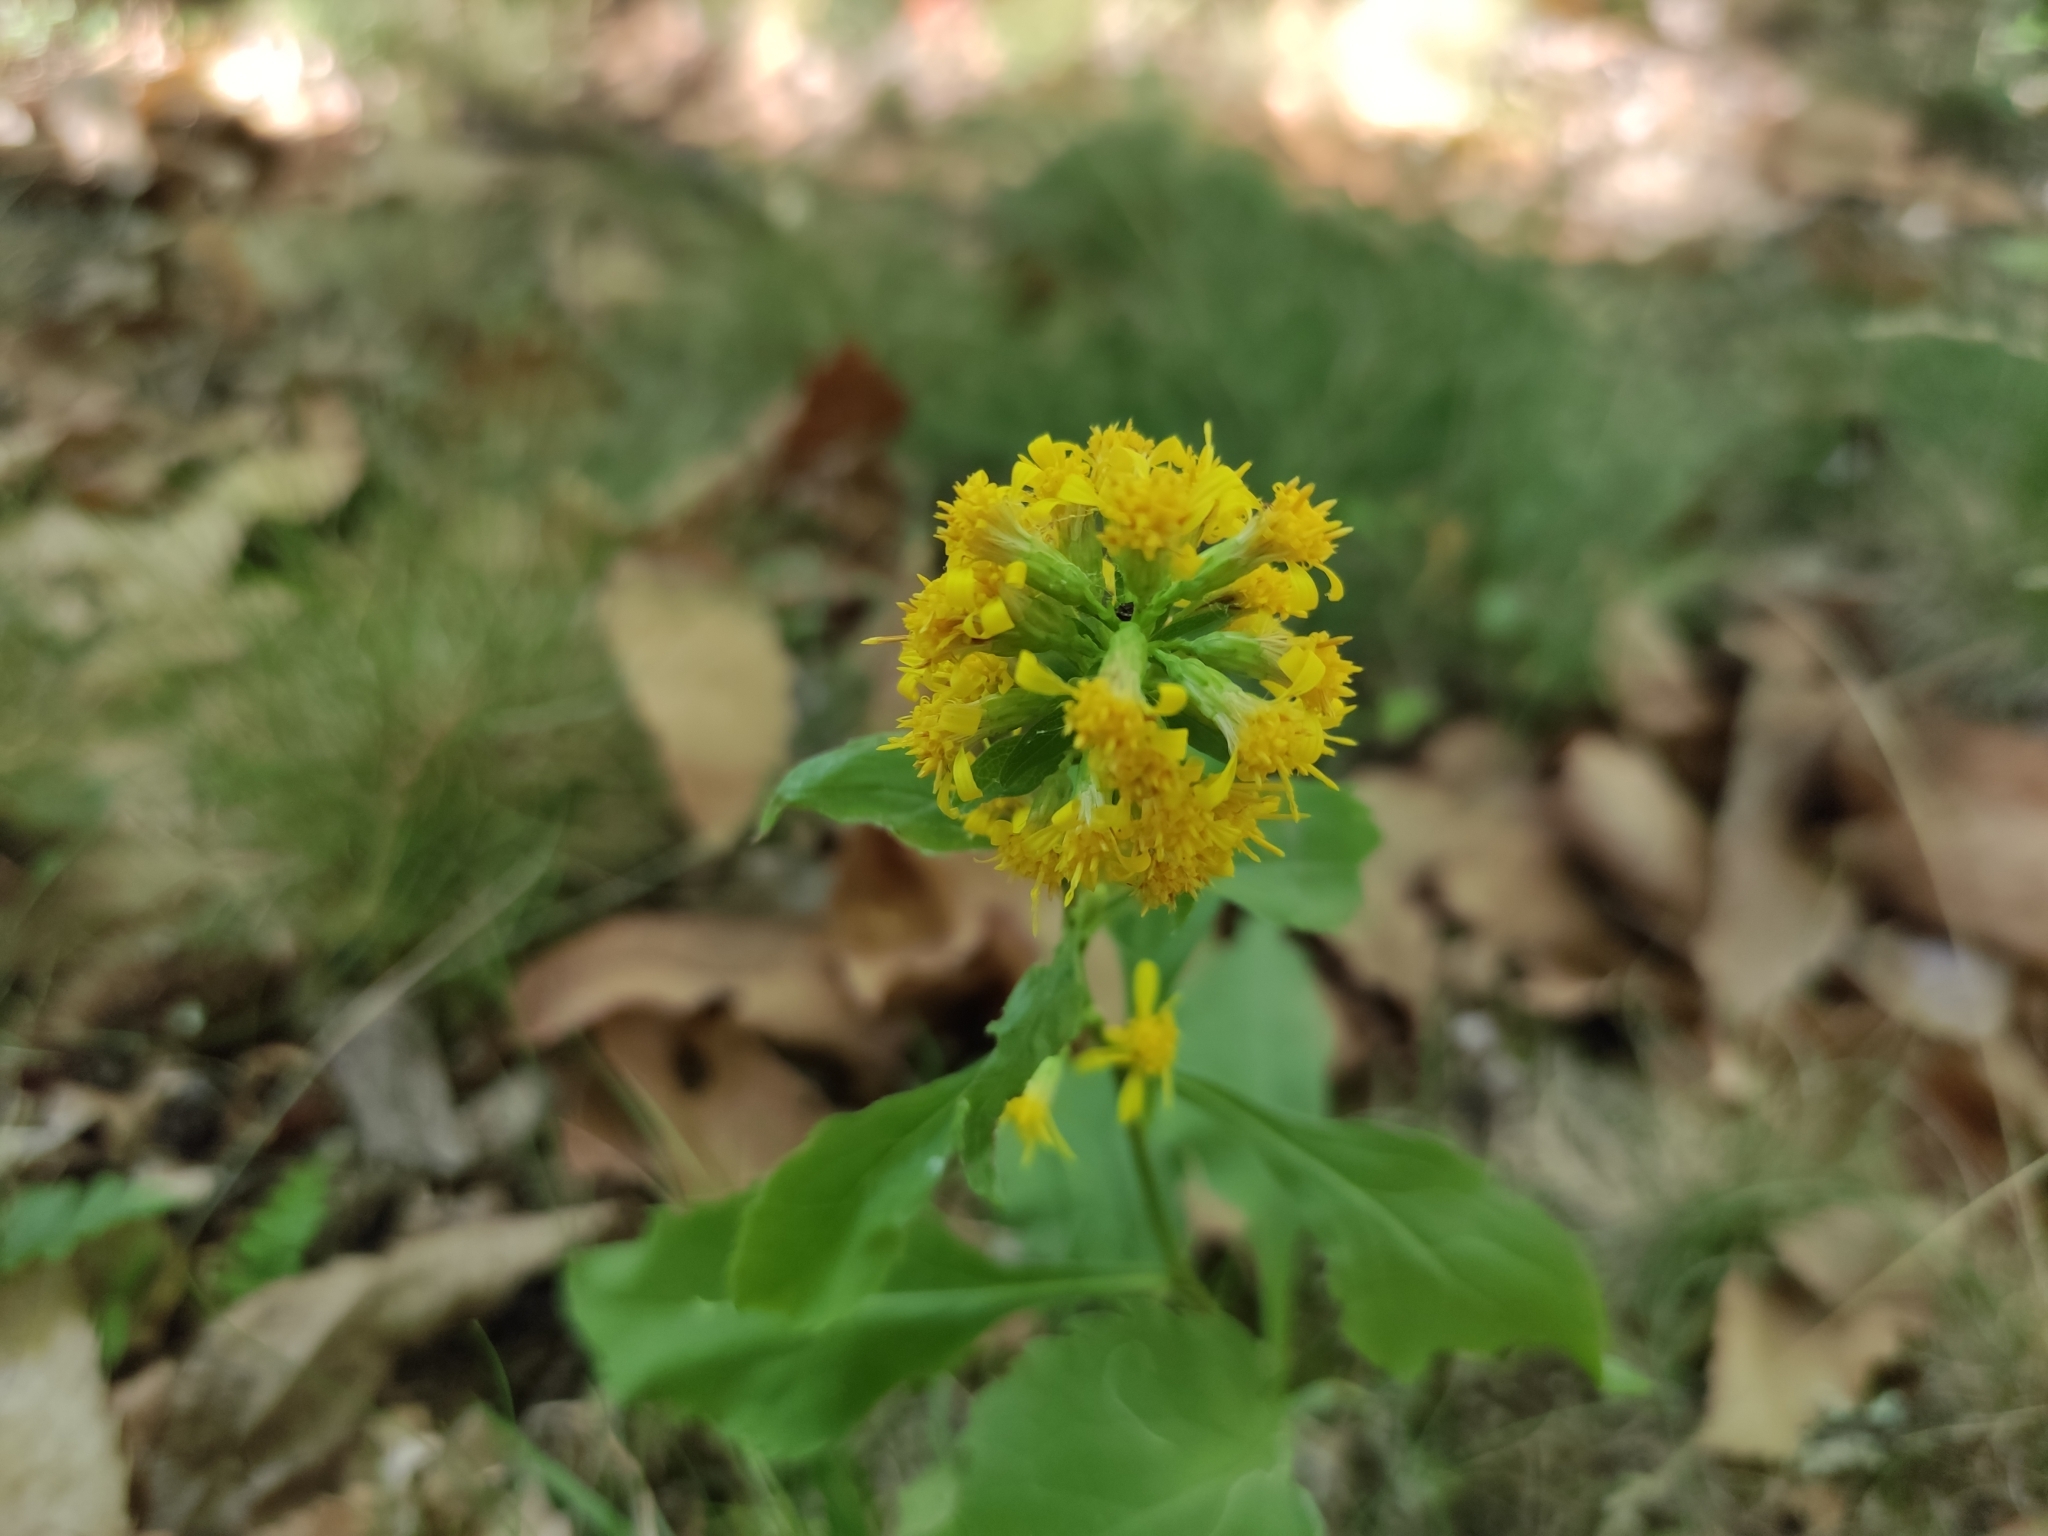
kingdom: Plantae
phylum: Tracheophyta
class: Magnoliopsida
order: Asterales
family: Asteraceae
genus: Solidago
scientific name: Solidago virgaurea
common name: Goldenrod
